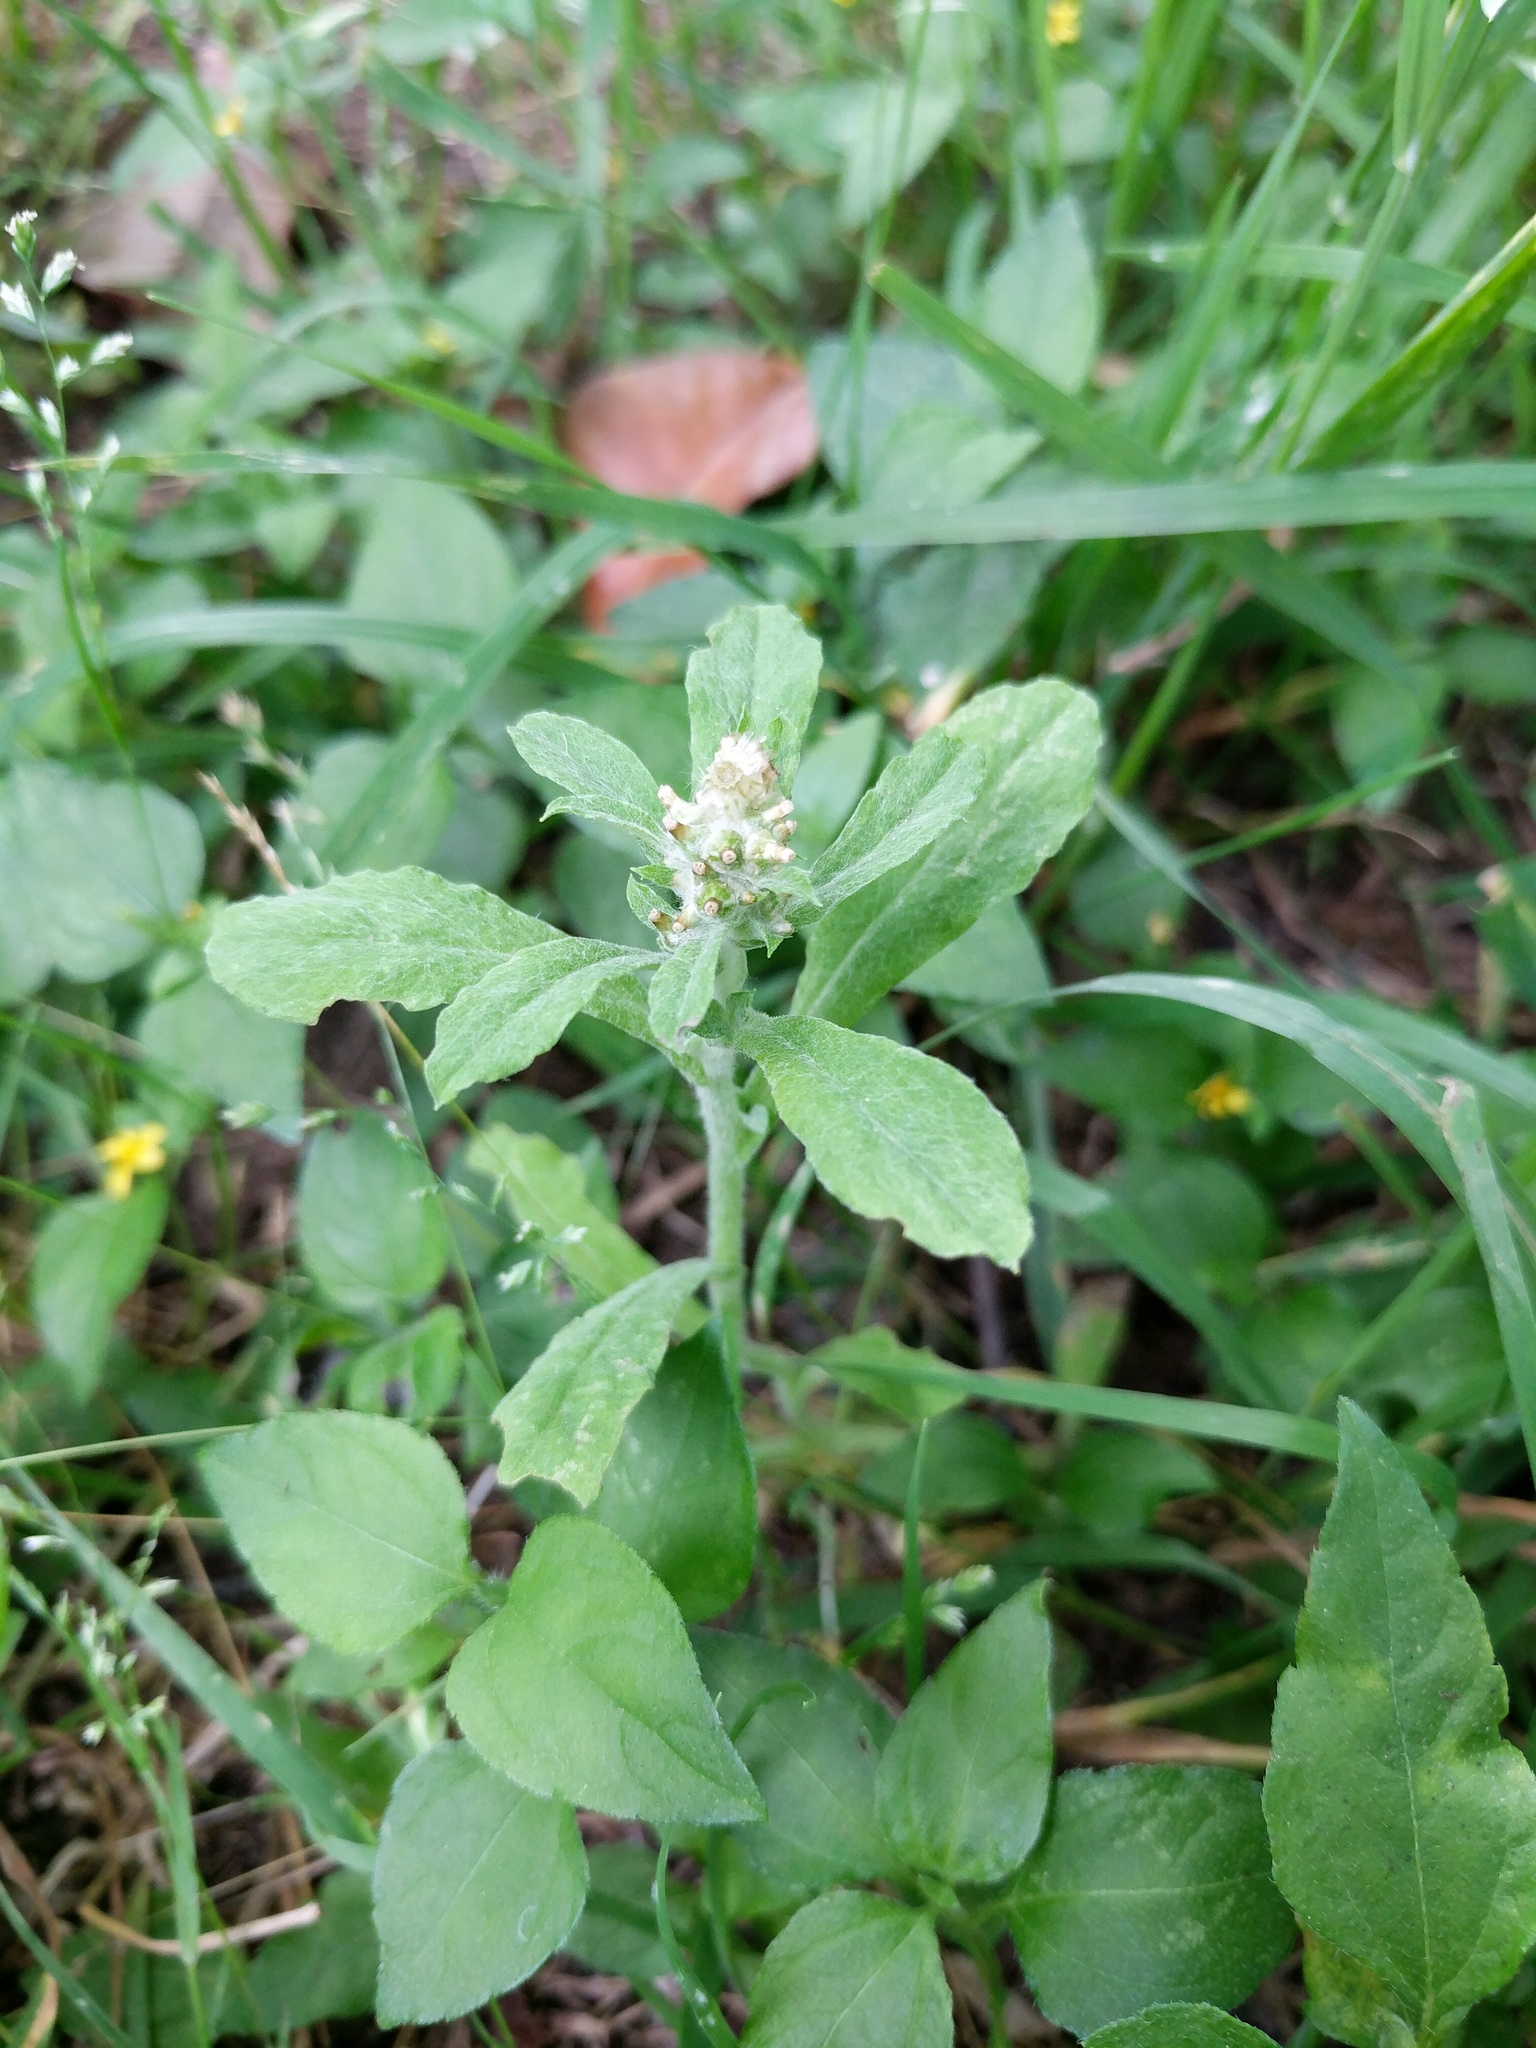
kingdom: Plantae
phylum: Tracheophyta
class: Magnoliopsida
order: Asterales
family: Asteraceae
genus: Gamochaeta
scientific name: Gamochaeta pensylvanica
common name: Pennsylvania everlasting
